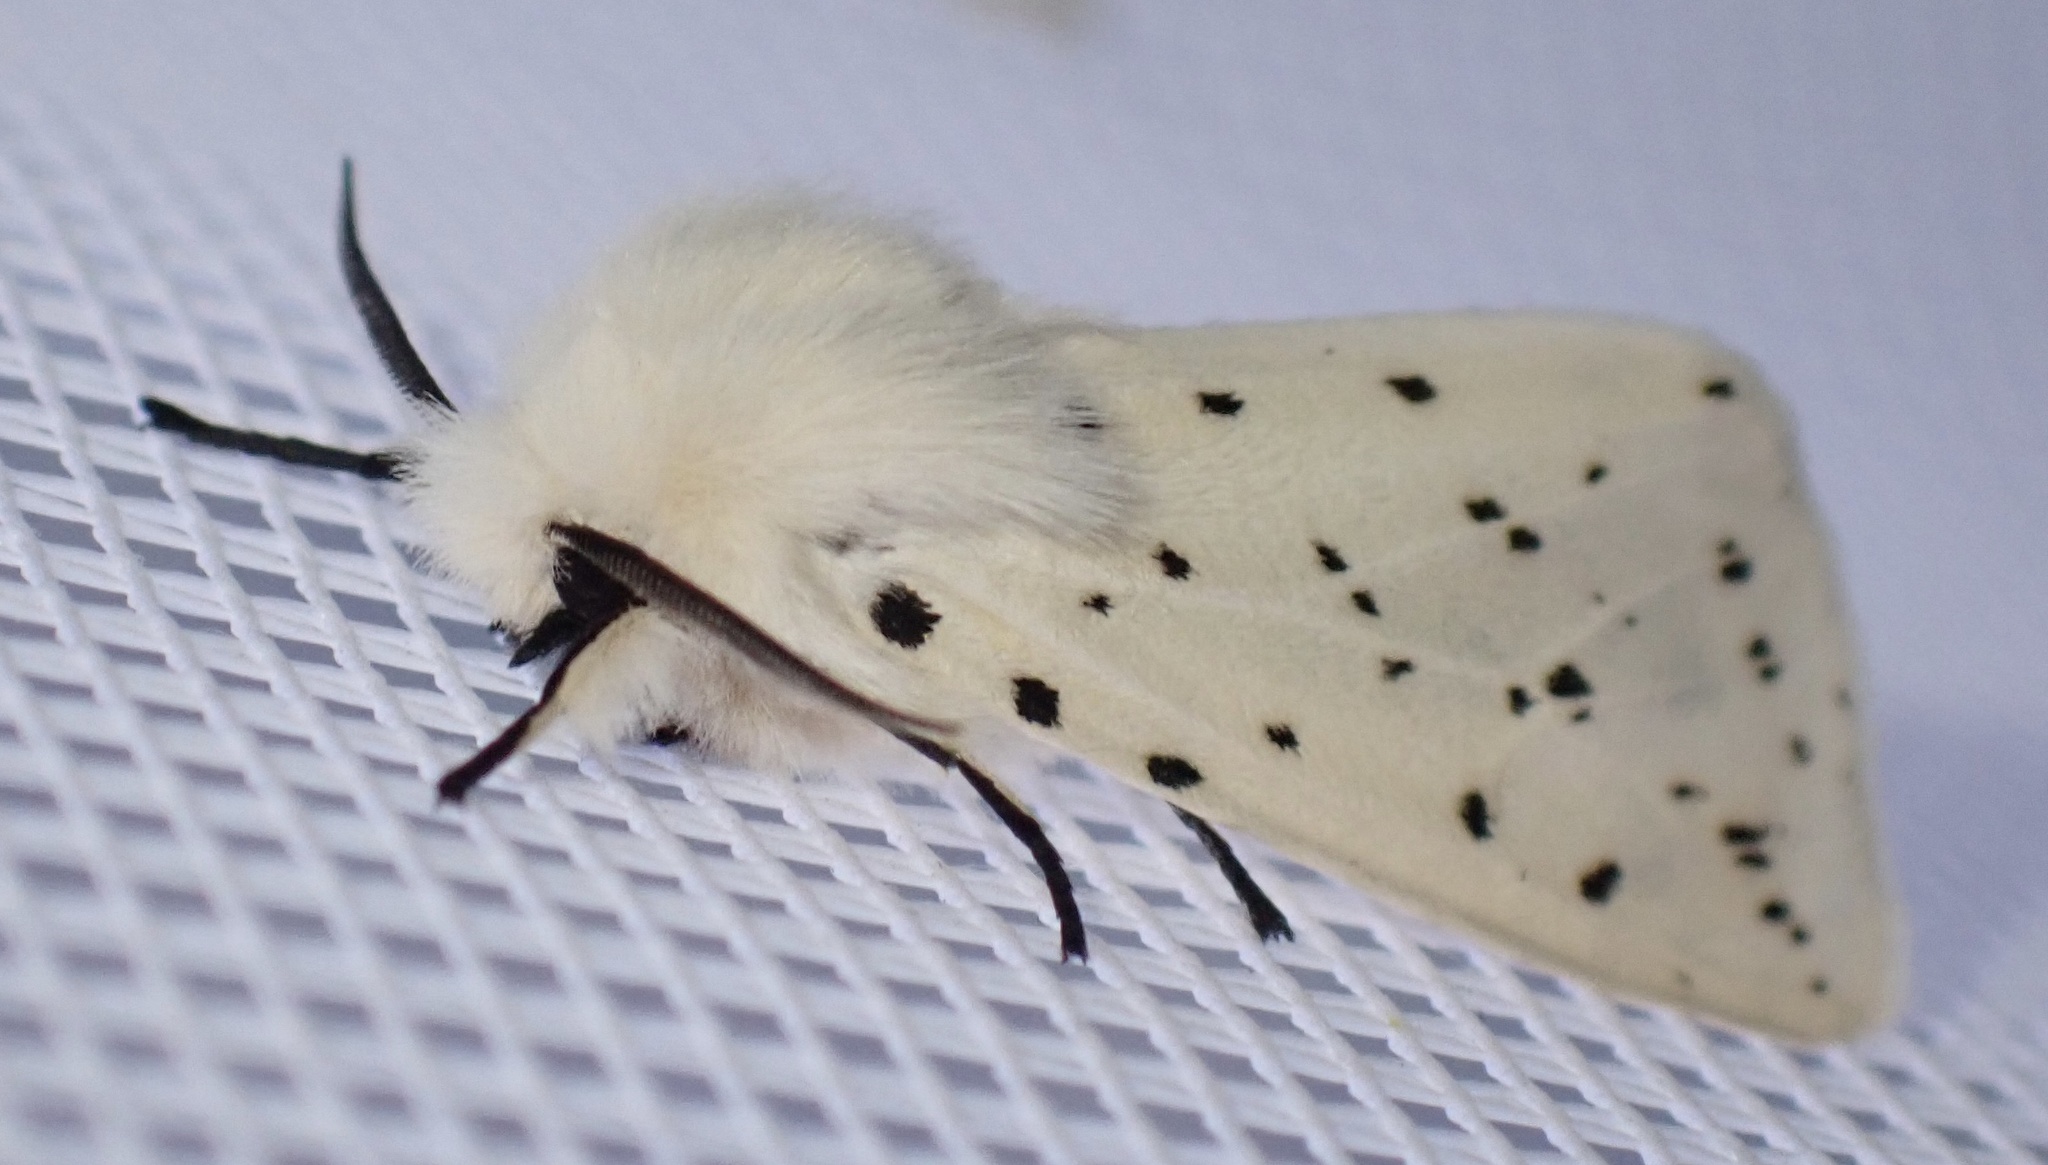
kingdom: Animalia
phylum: Arthropoda
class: Insecta
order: Lepidoptera
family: Erebidae
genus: Spilosoma
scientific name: Spilosoma lubricipeda
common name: White ermine
